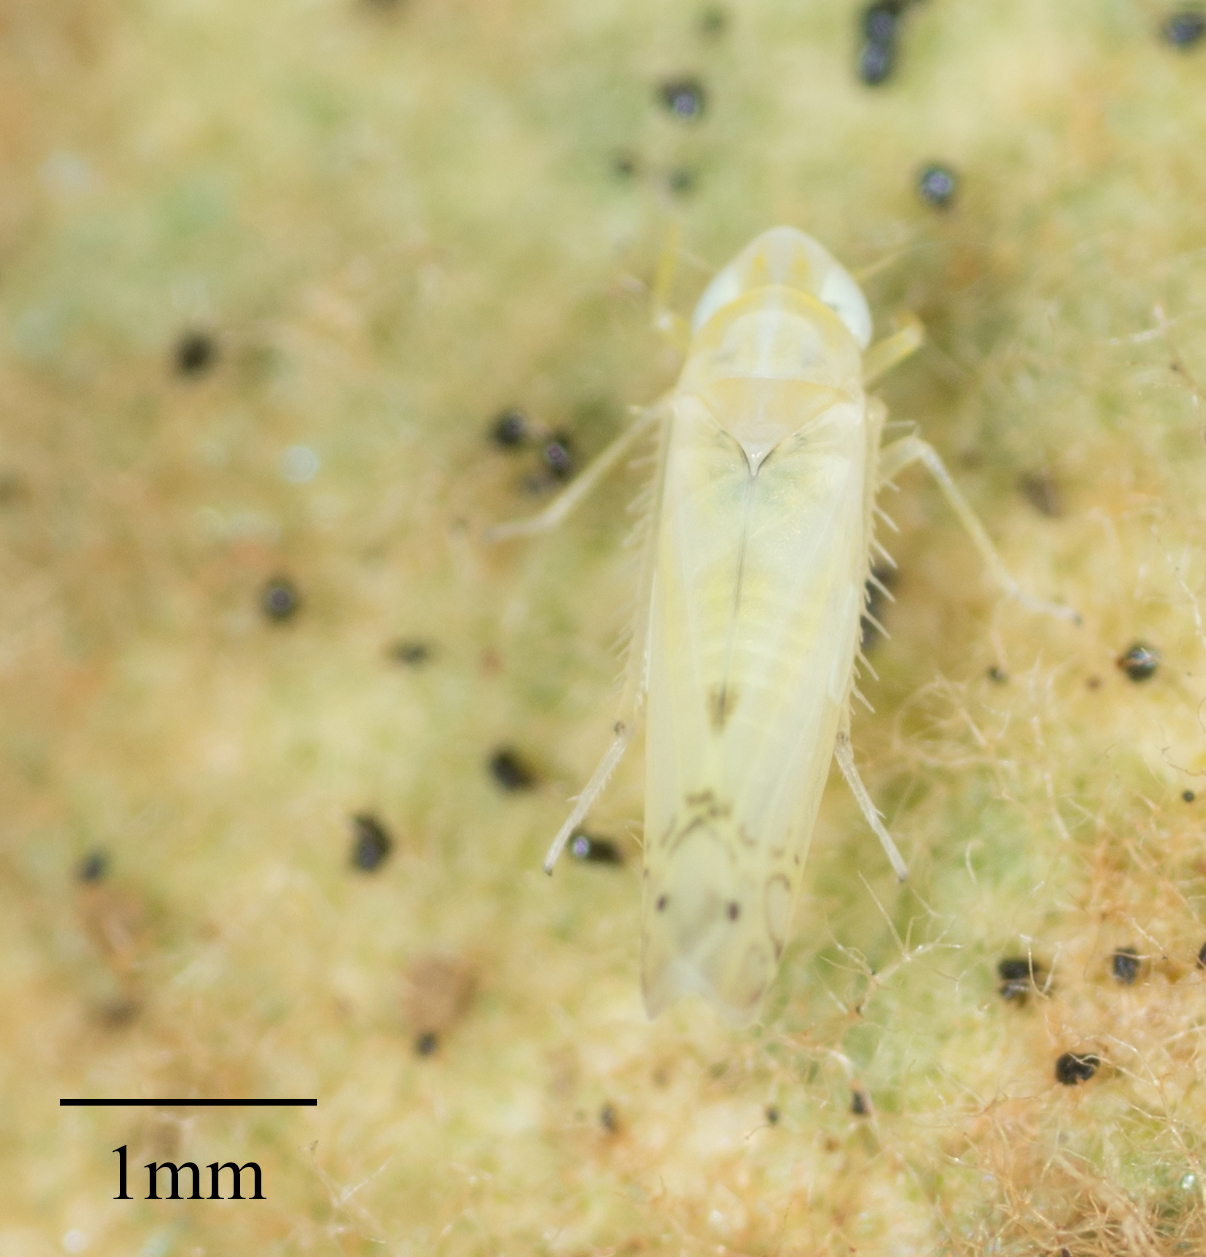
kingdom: Animalia
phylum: Arthropoda
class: Insecta
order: Hemiptera
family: Cicadellidae
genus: Alconeura
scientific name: Alconeura quadrimaculata
